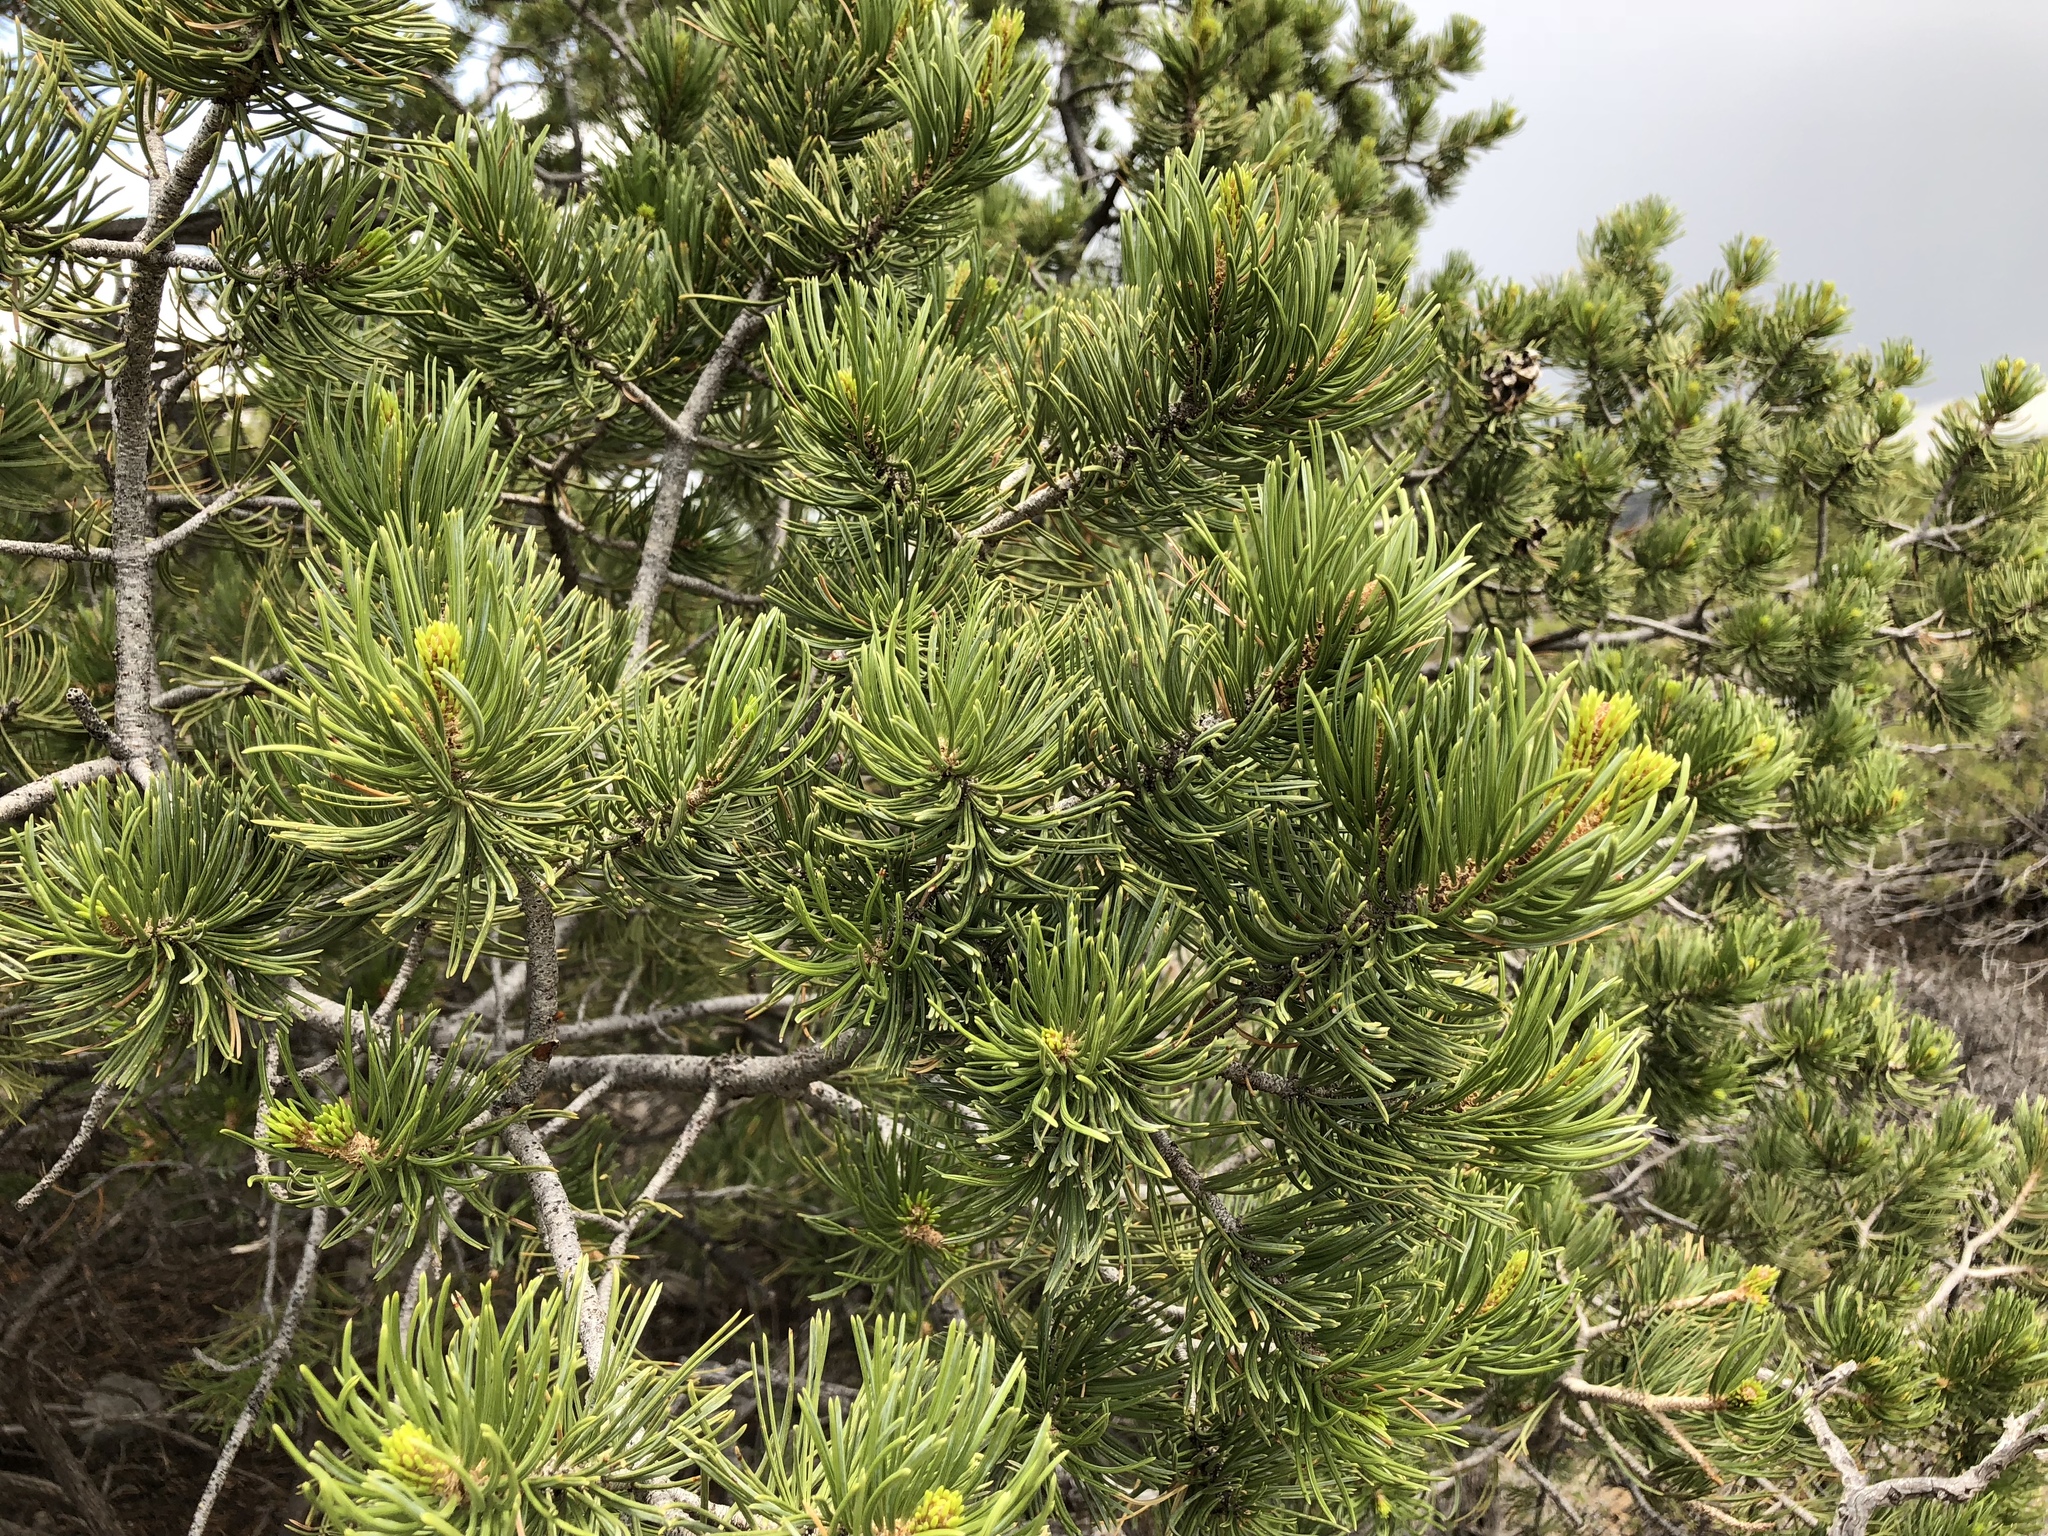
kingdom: Plantae
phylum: Tracheophyta
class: Pinopsida
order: Pinales
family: Pinaceae
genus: Pinus
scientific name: Pinus edulis
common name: Colorado pinyon
